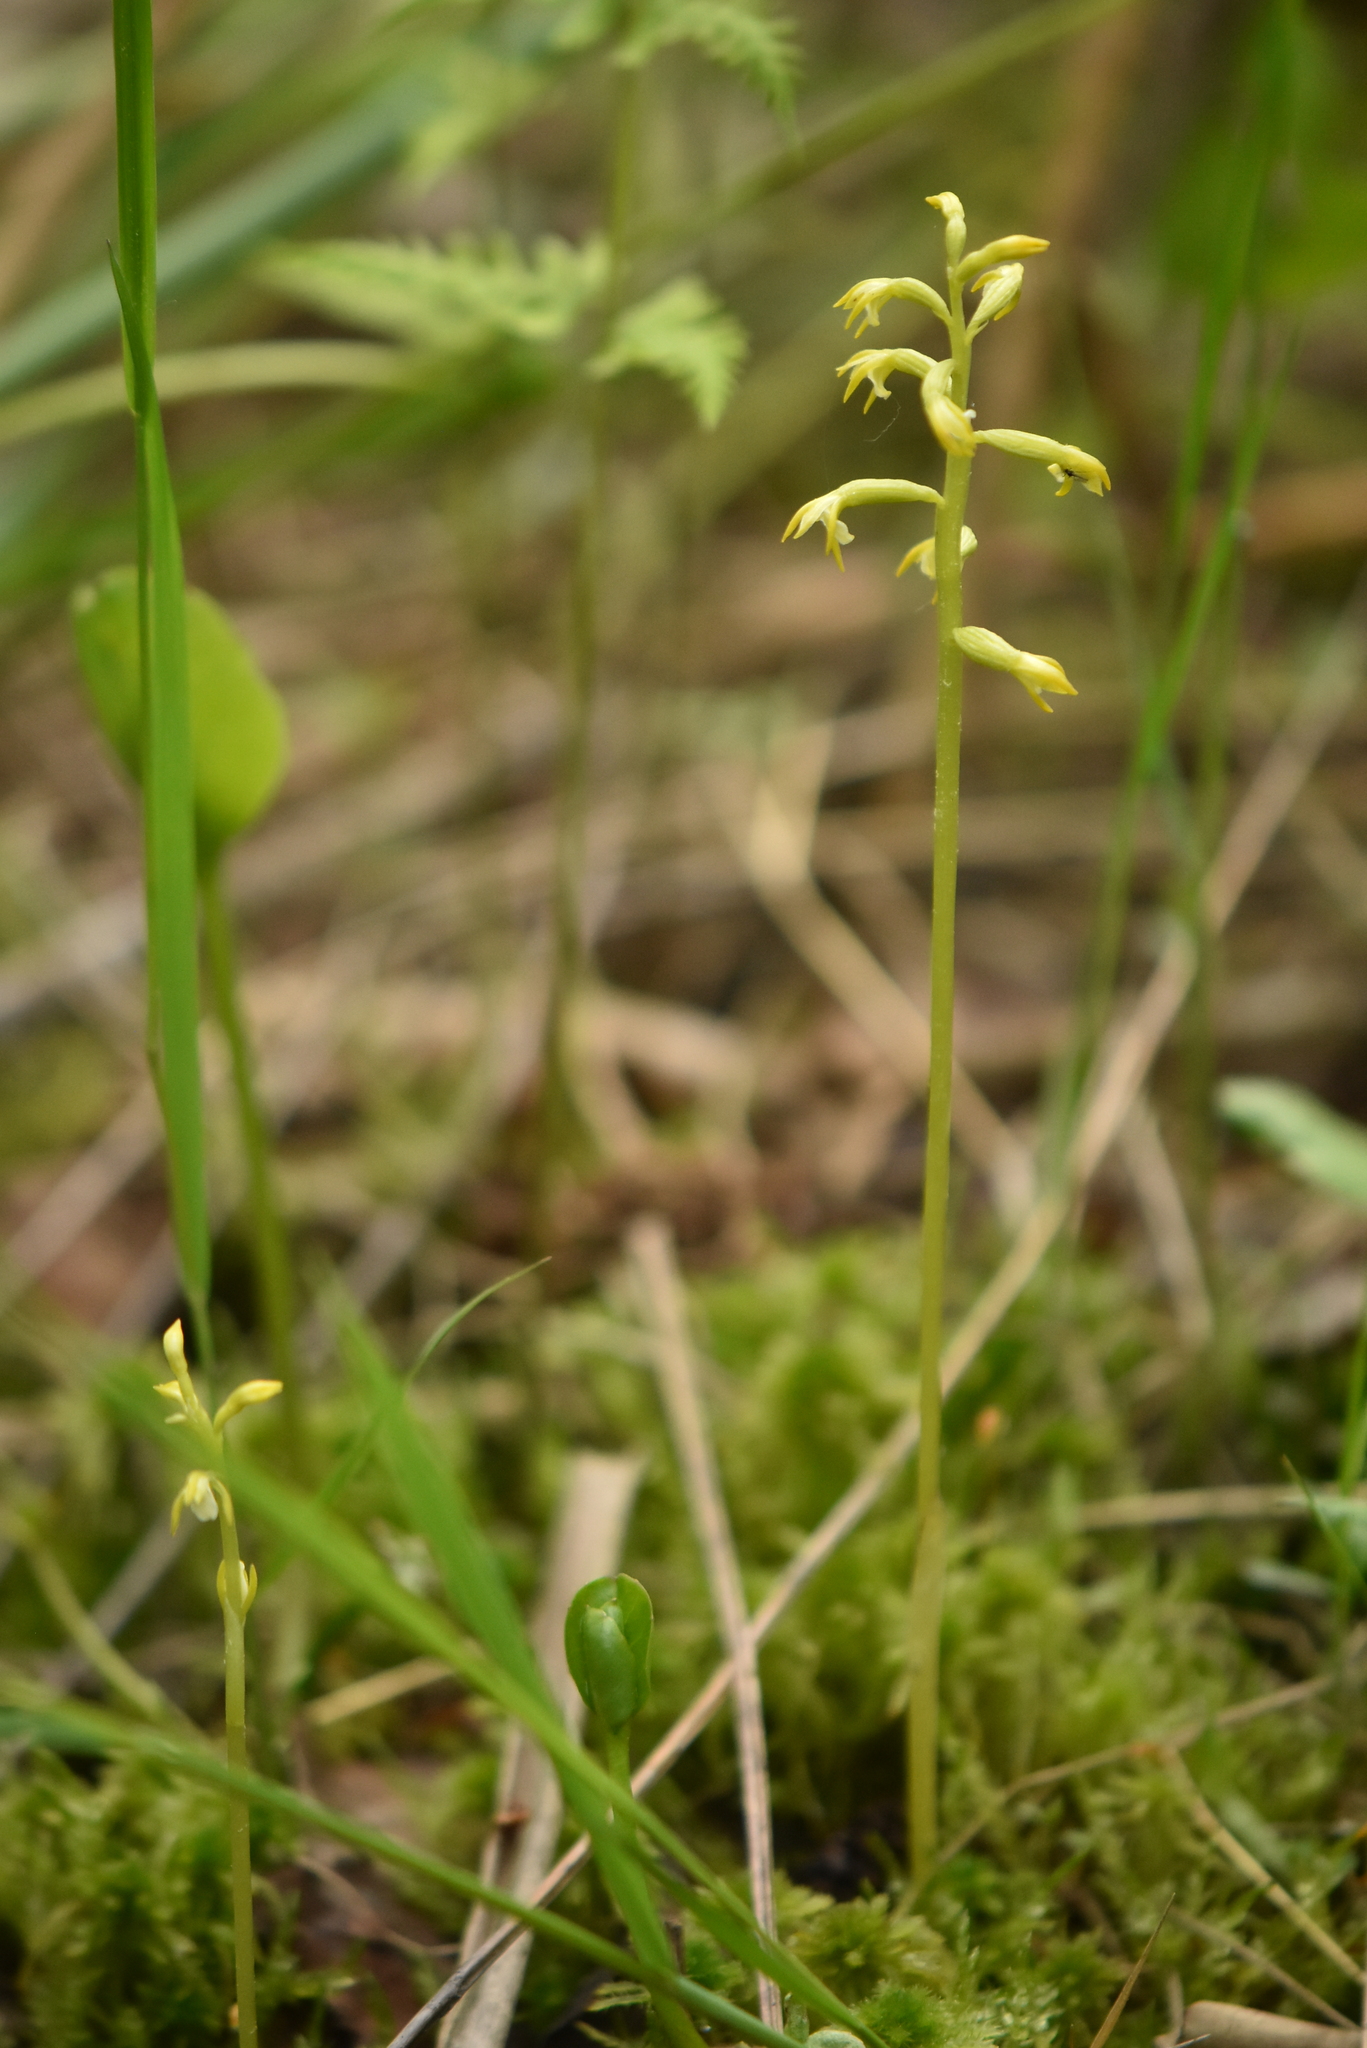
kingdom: Plantae
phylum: Tracheophyta
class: Liliopsida
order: Asparagales
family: Orchidaceae
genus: Corallorhiza
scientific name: Corallorhiza trifida
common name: Yellow coralroot
